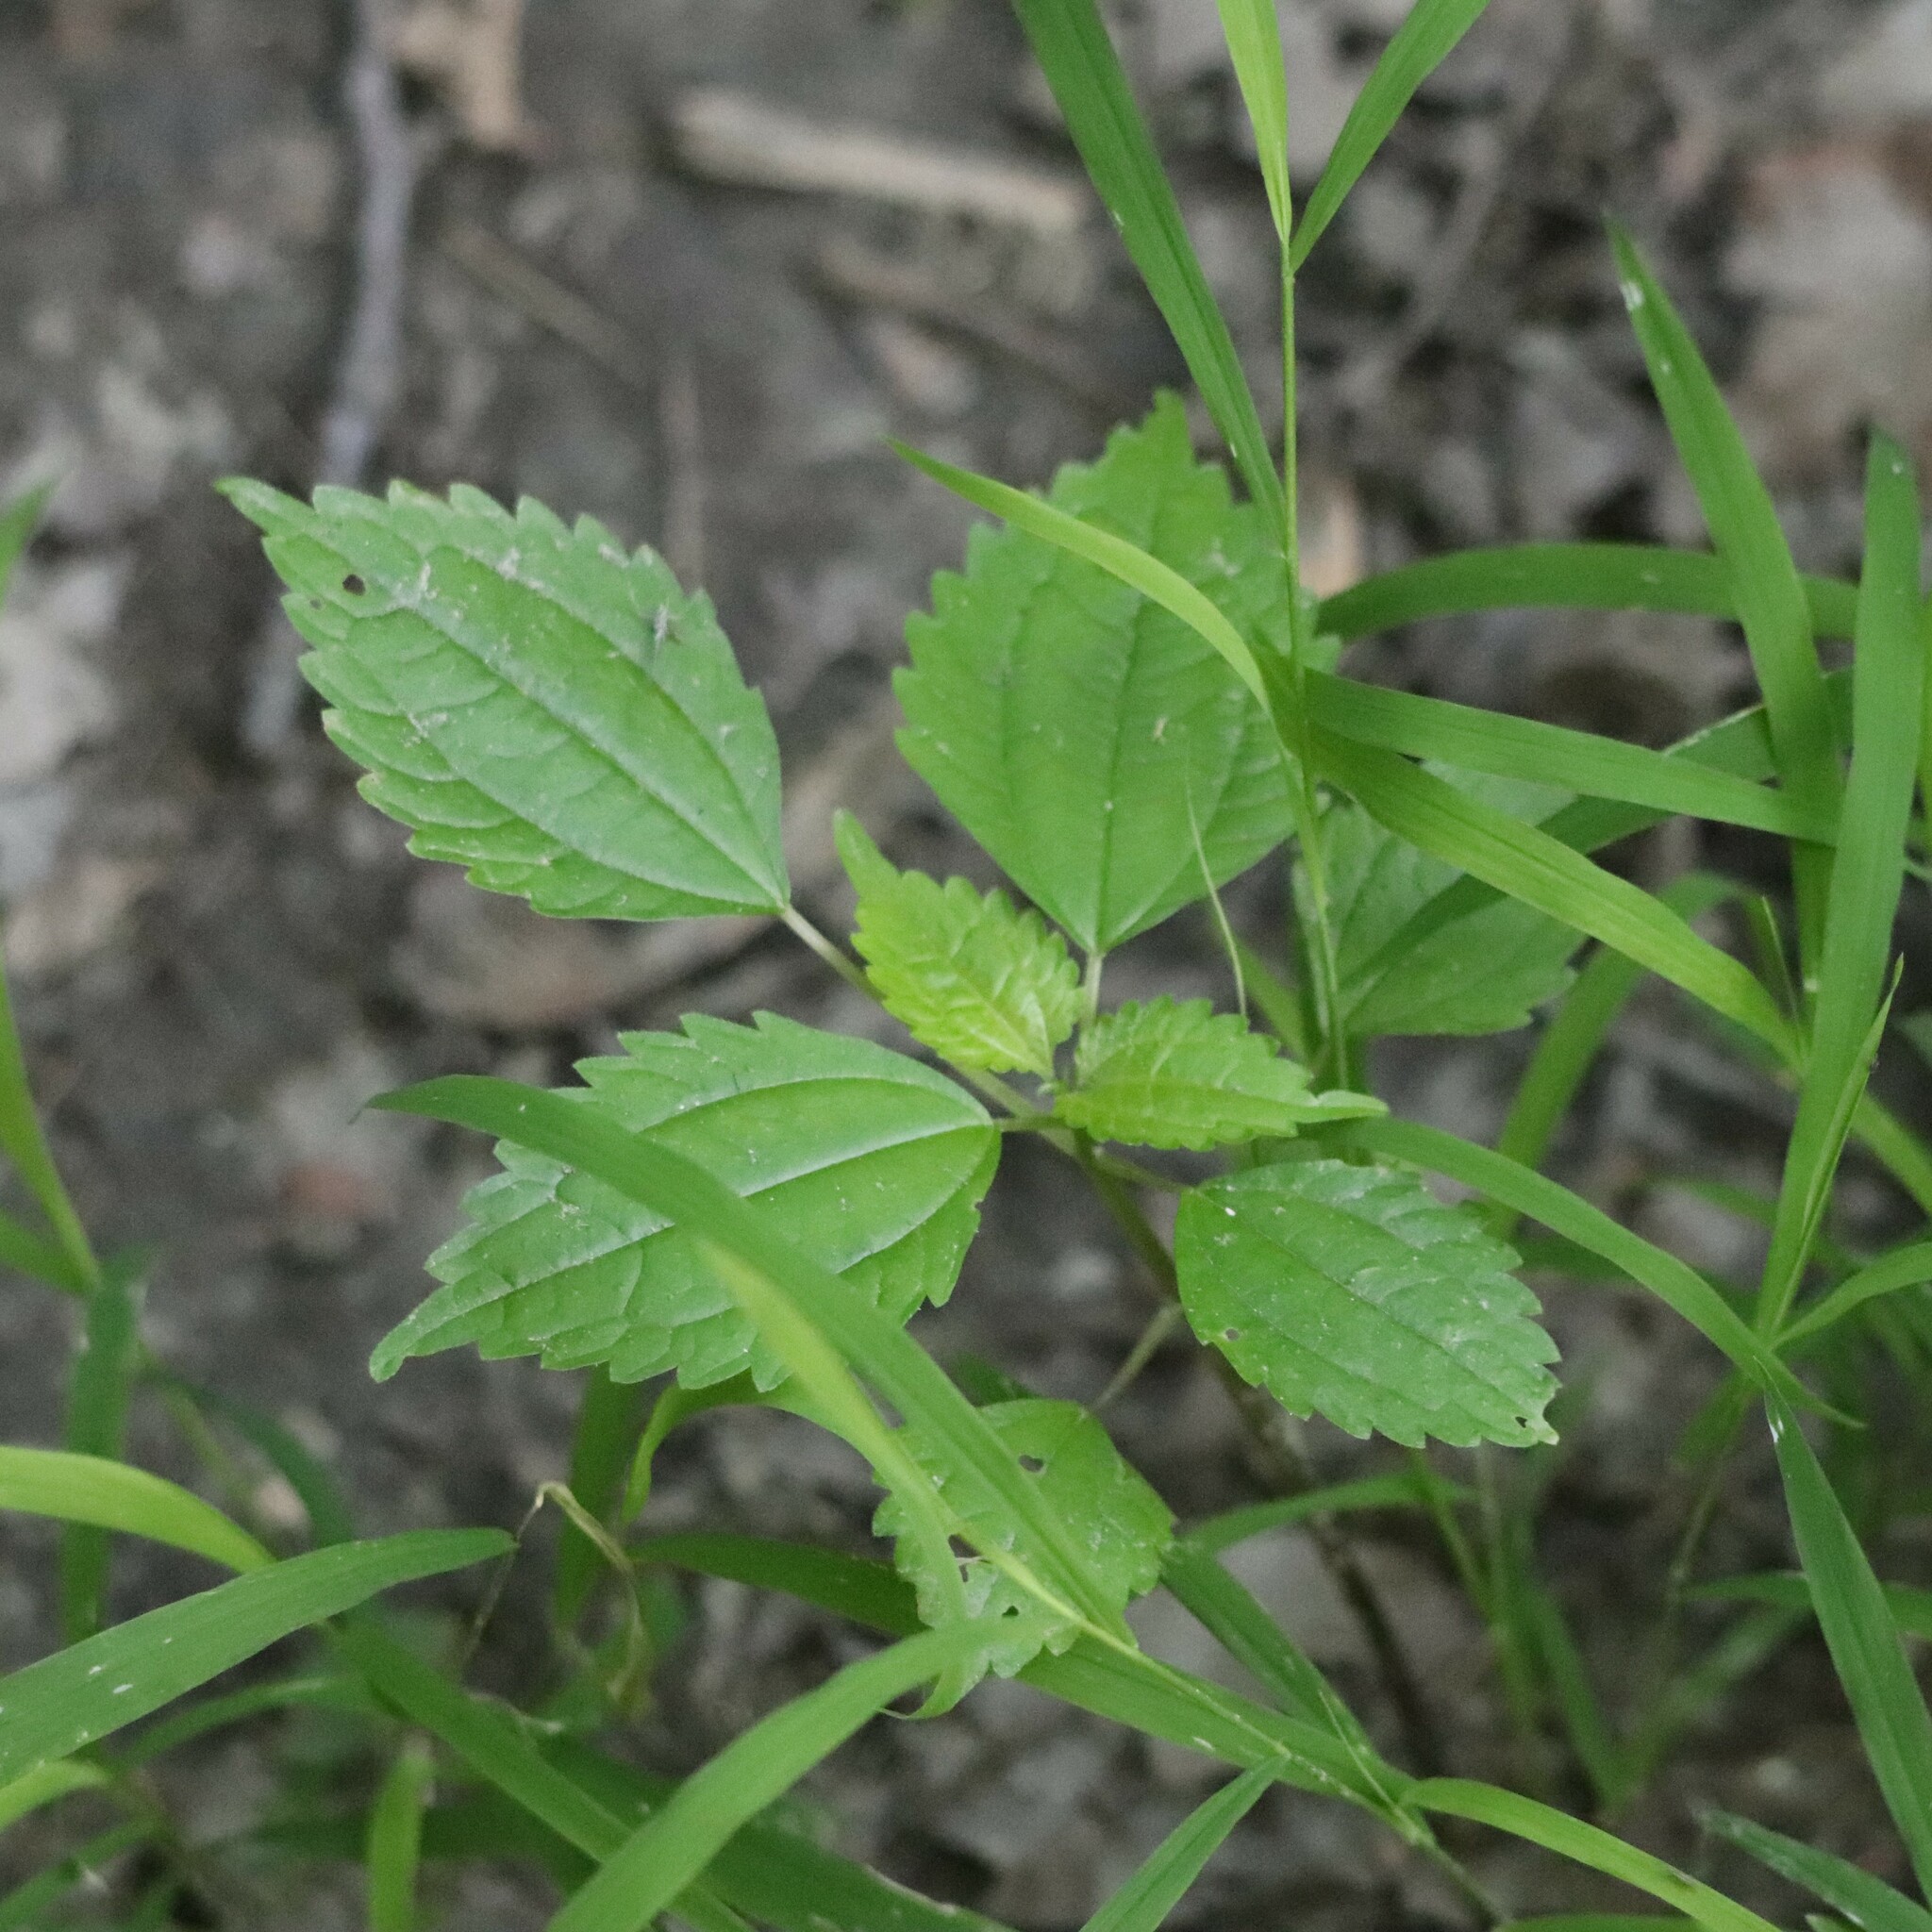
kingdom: Plantae
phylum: Tracheophyta
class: Magnoliopsida
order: Rosales
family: Urticaceae
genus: Pilea
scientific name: Pilea pumila
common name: Clearweed
